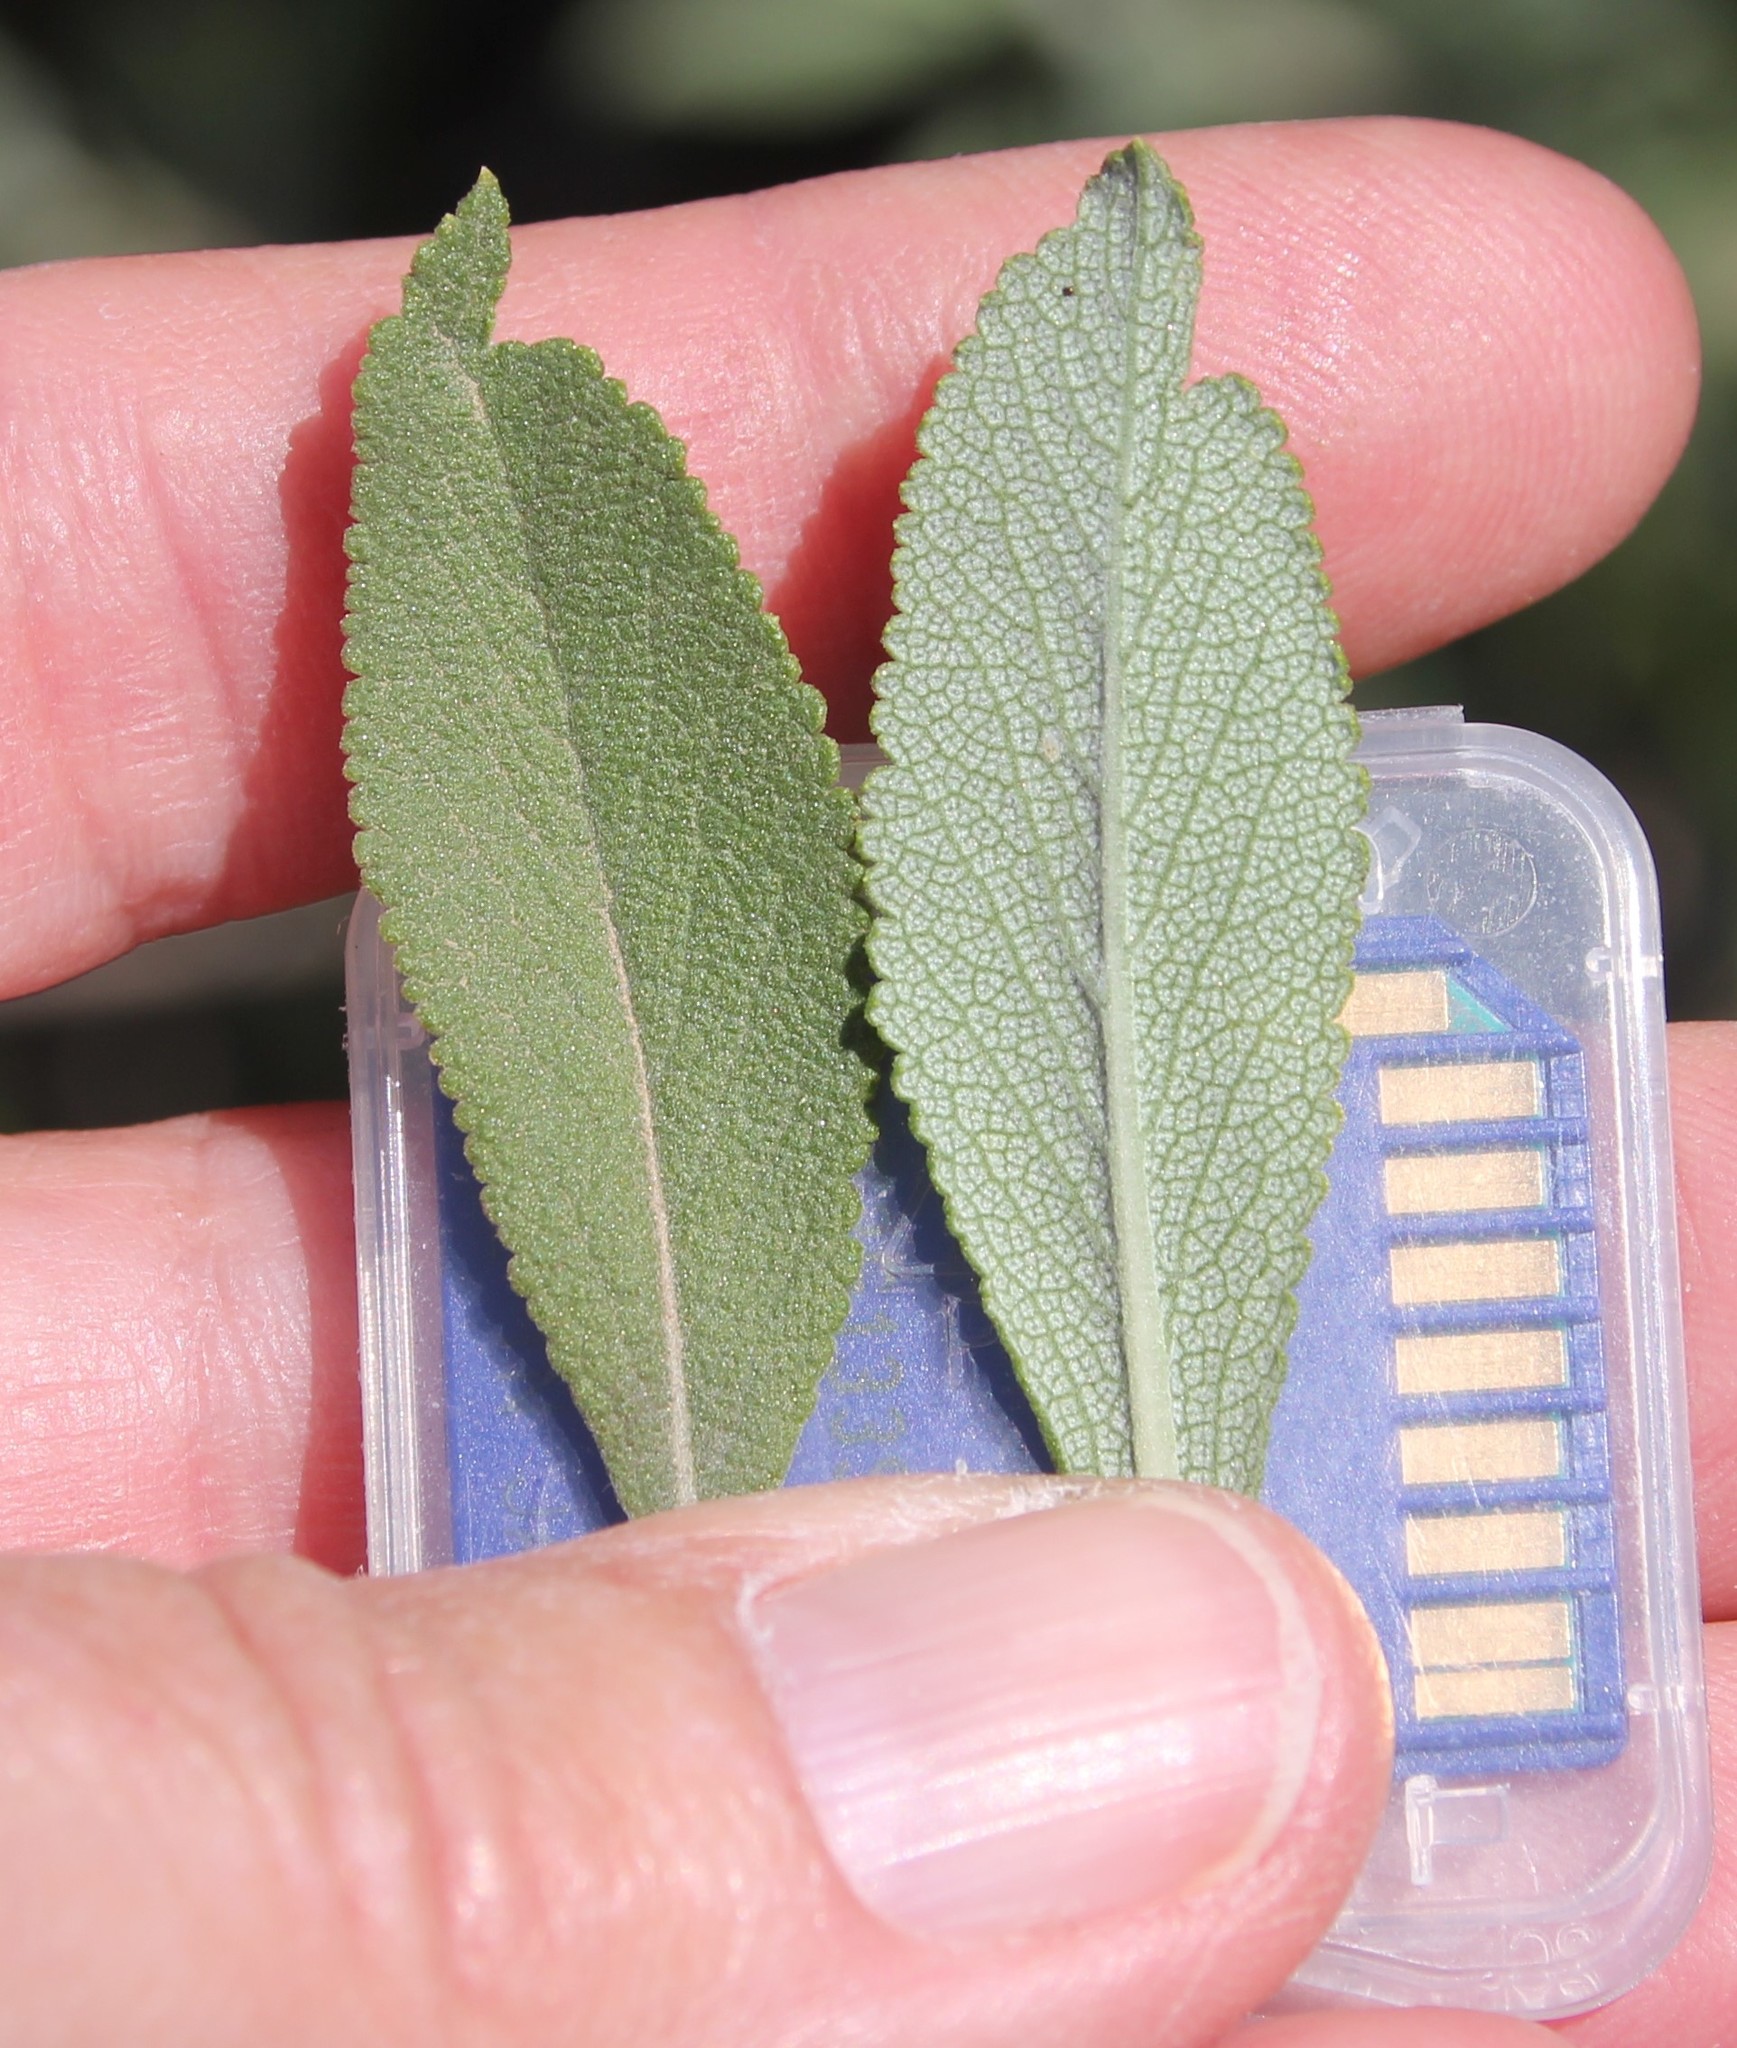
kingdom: Plantae
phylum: Tracheophyta
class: Magnoliopsida
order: Lamiales
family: Lamiaceae
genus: Salvia
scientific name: Salvia
